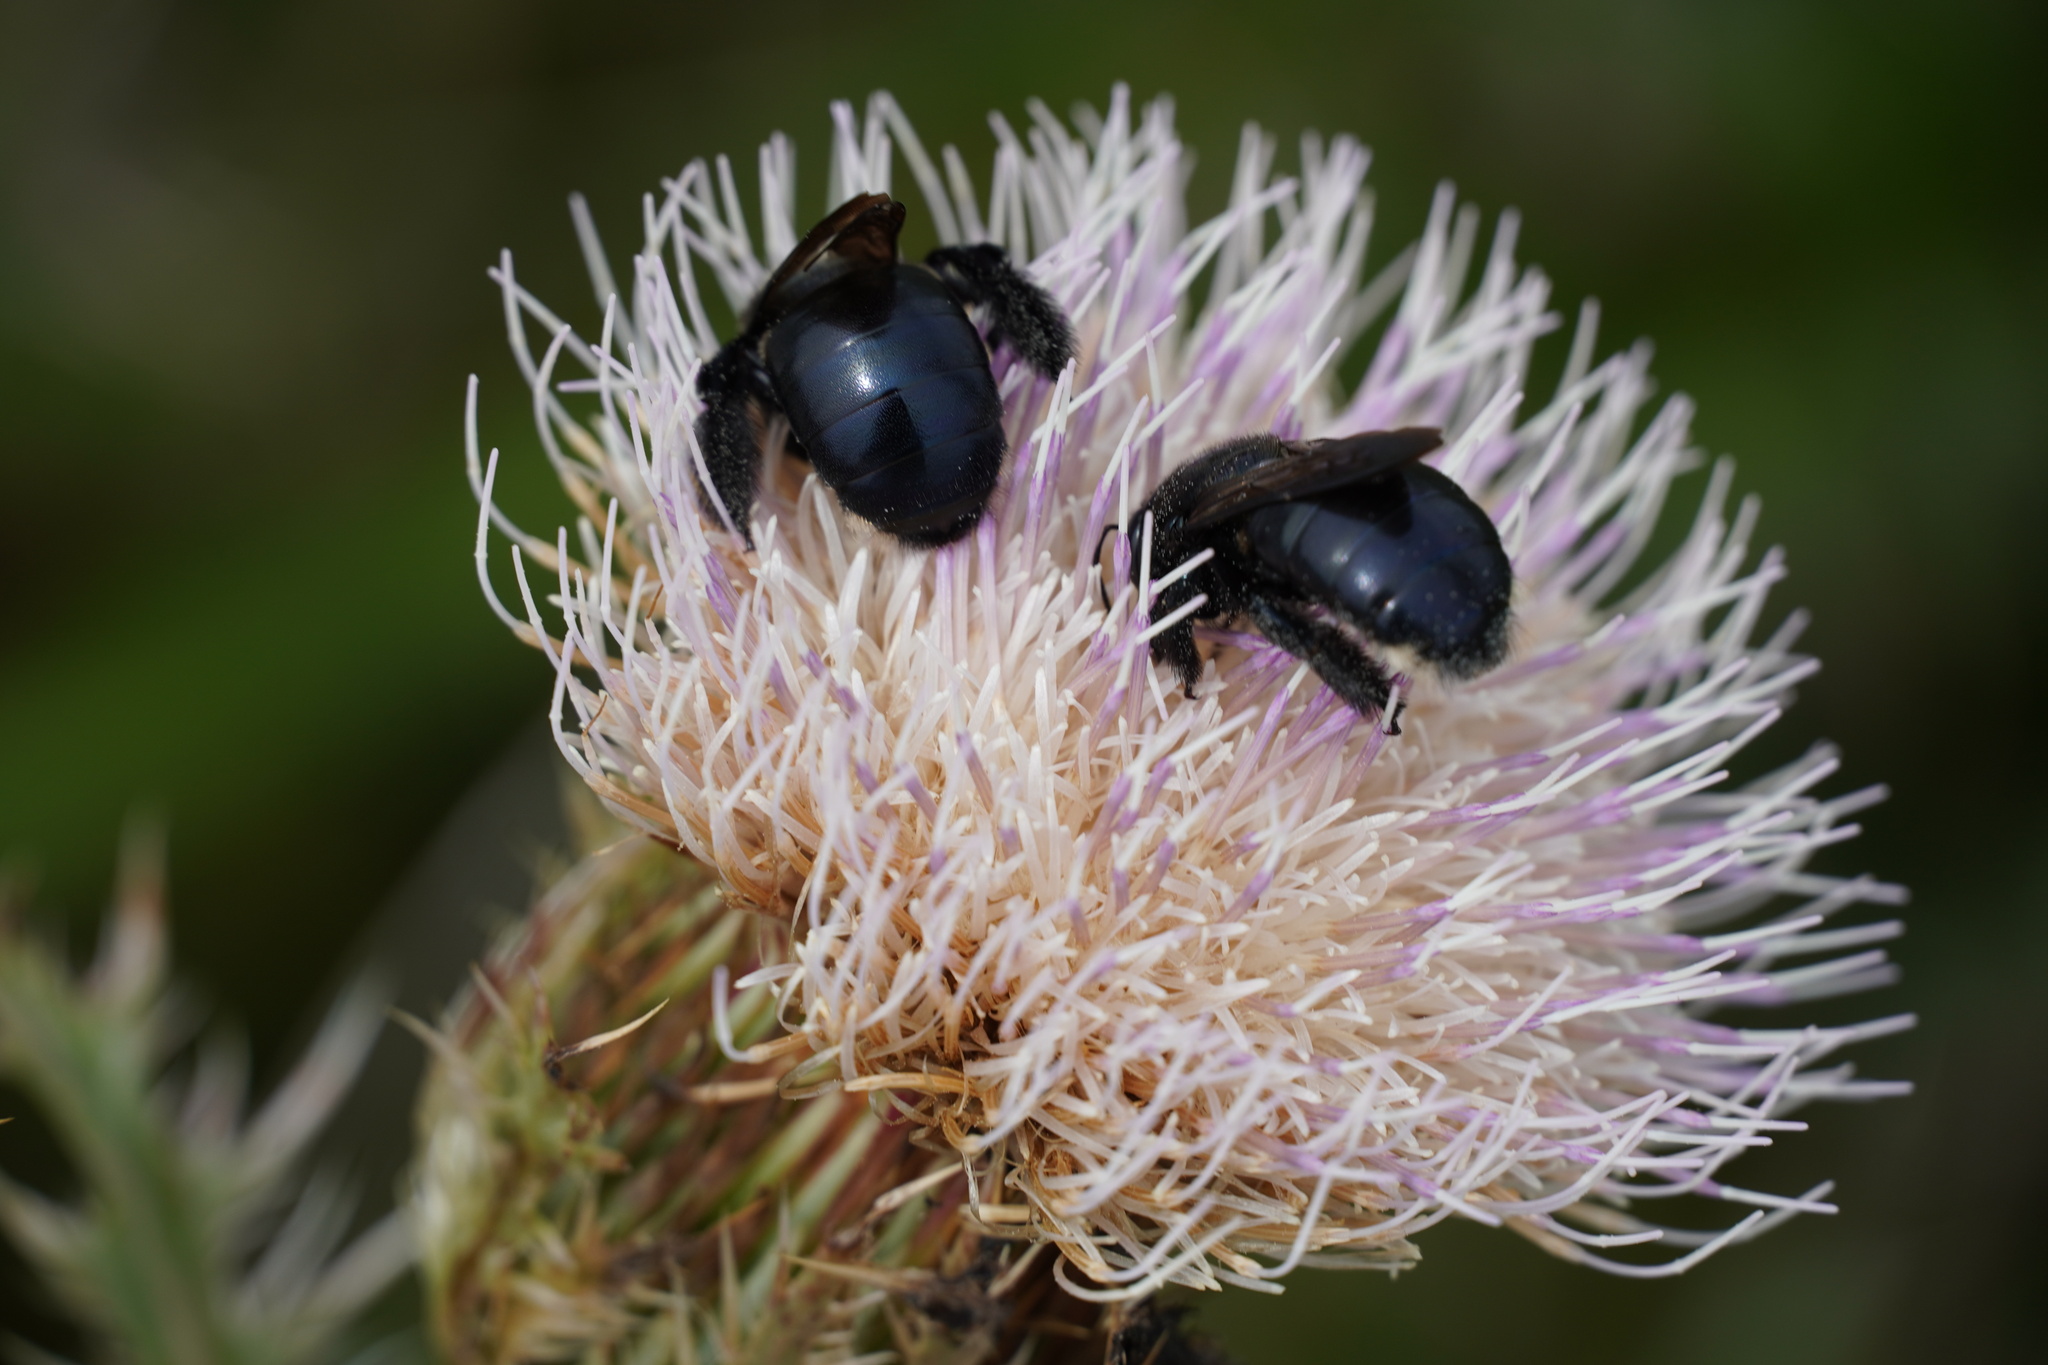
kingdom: Animalia
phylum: Arthropoda
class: Insecta
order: Hymenoptera
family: Apidae
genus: Xylocopa
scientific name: Xylocopa micans
